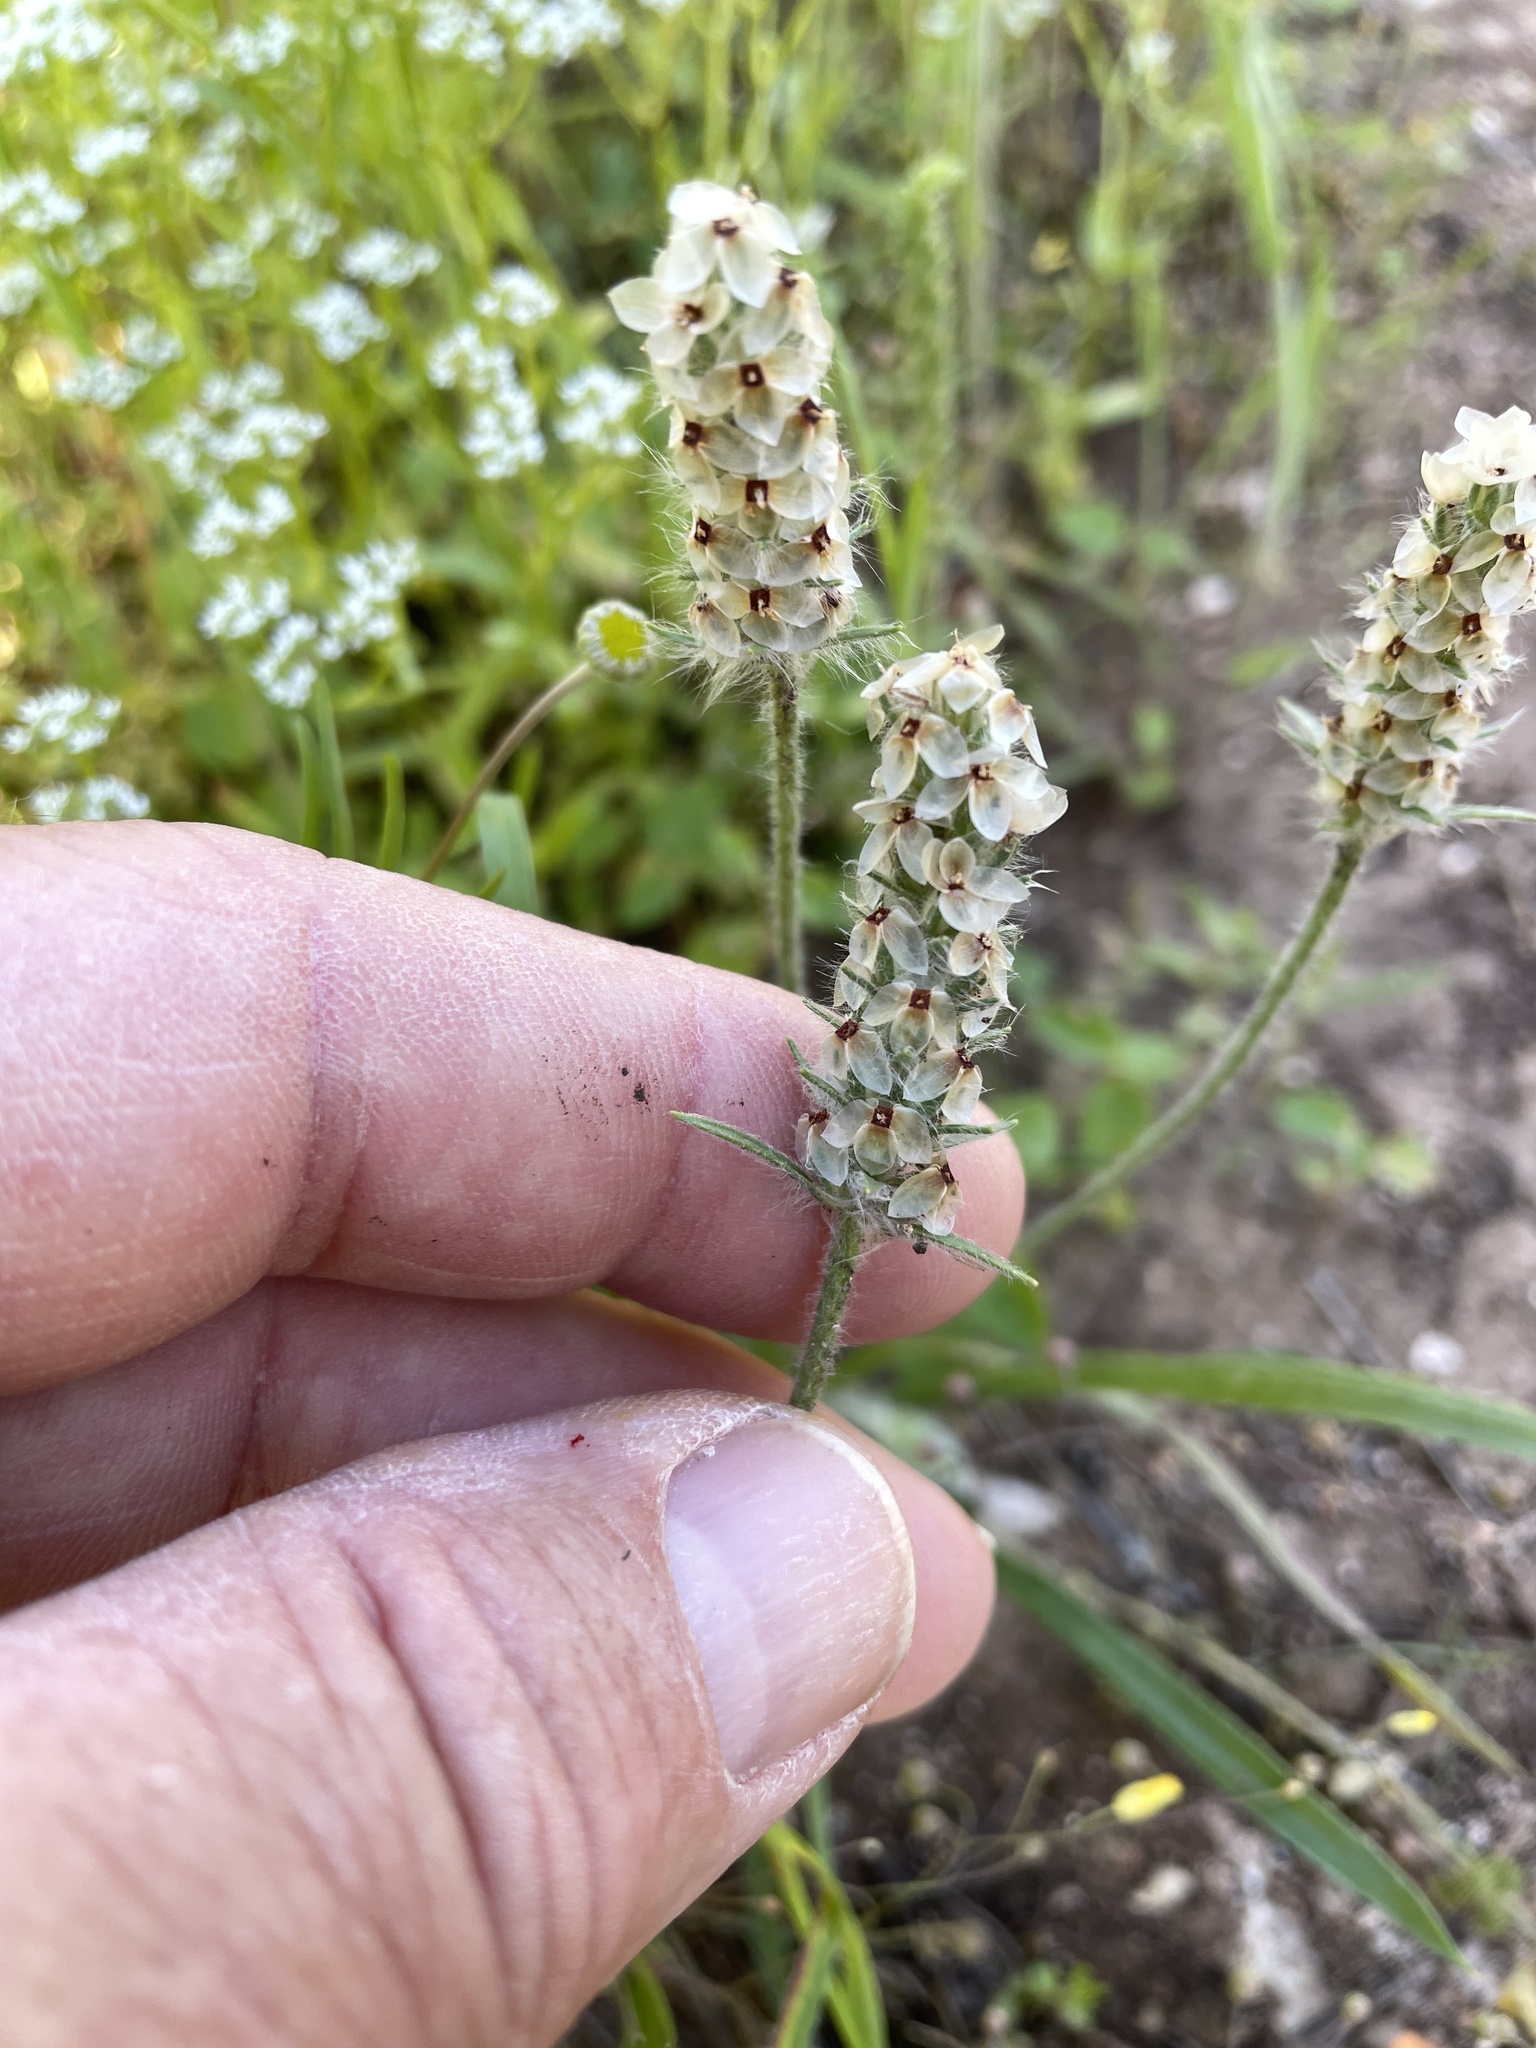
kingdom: Plantae
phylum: Tracheophyta
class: Magnoliopsida
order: Lamiales
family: Plantaginaceae
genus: Plantago
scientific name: Plantago helleri
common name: Heller's plantain
